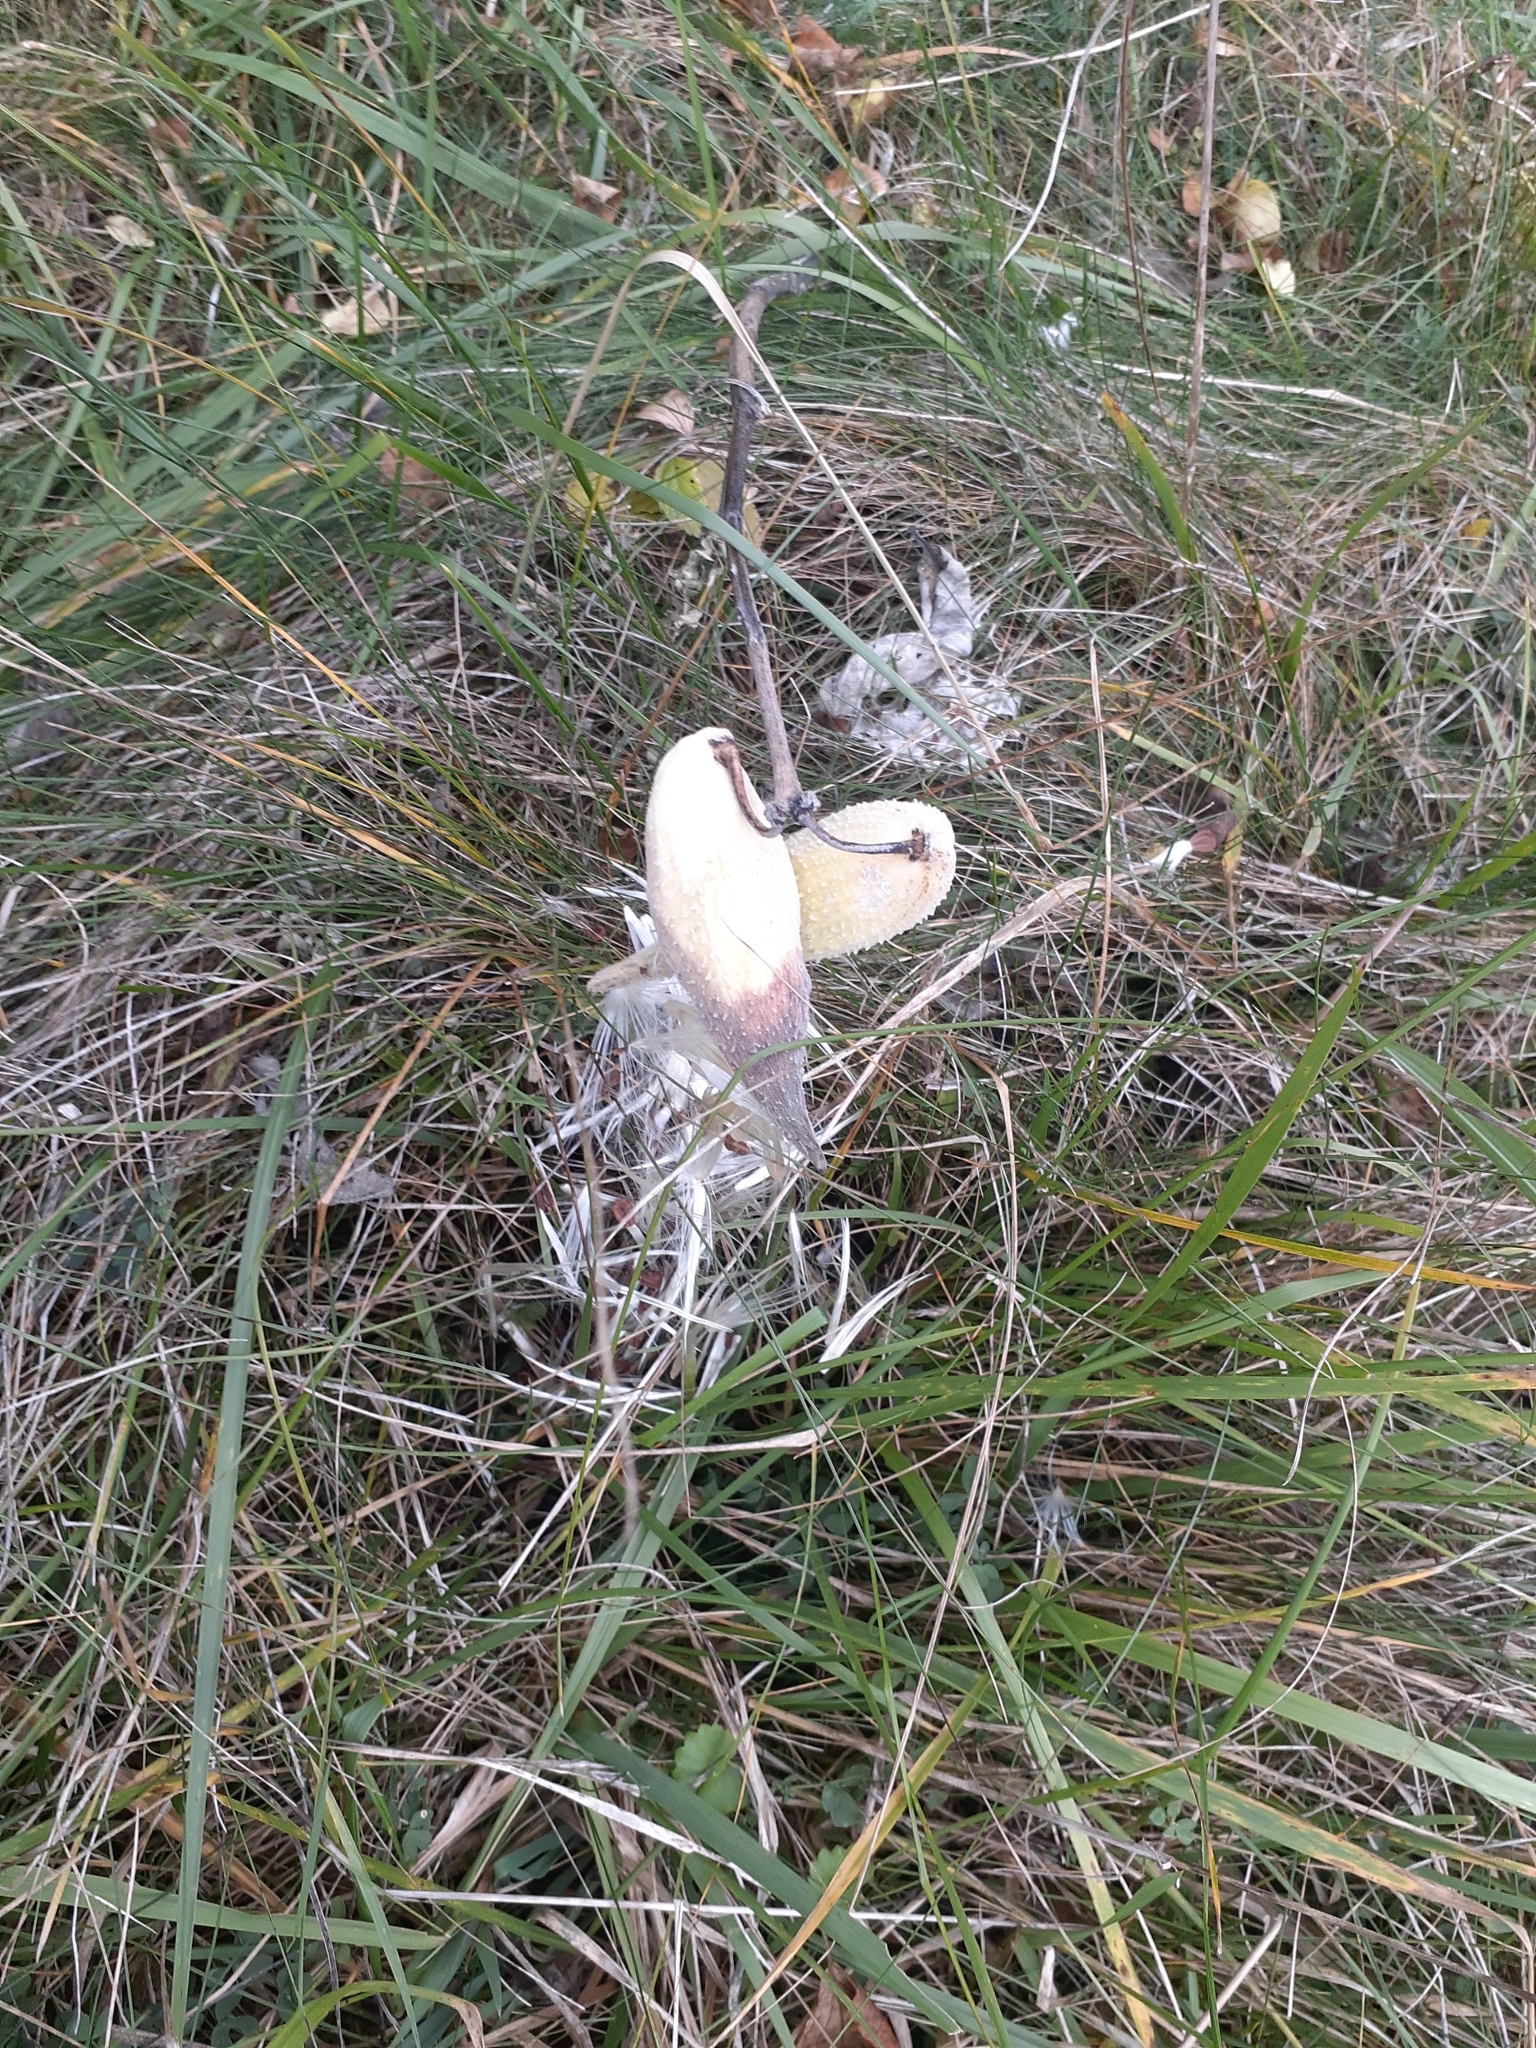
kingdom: Plantae
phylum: Tracheophyta
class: Magnoliopsida
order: Gentianales
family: Apocynaceae
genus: Asclepias
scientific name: Asclepias syriaca
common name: Common milkweed
